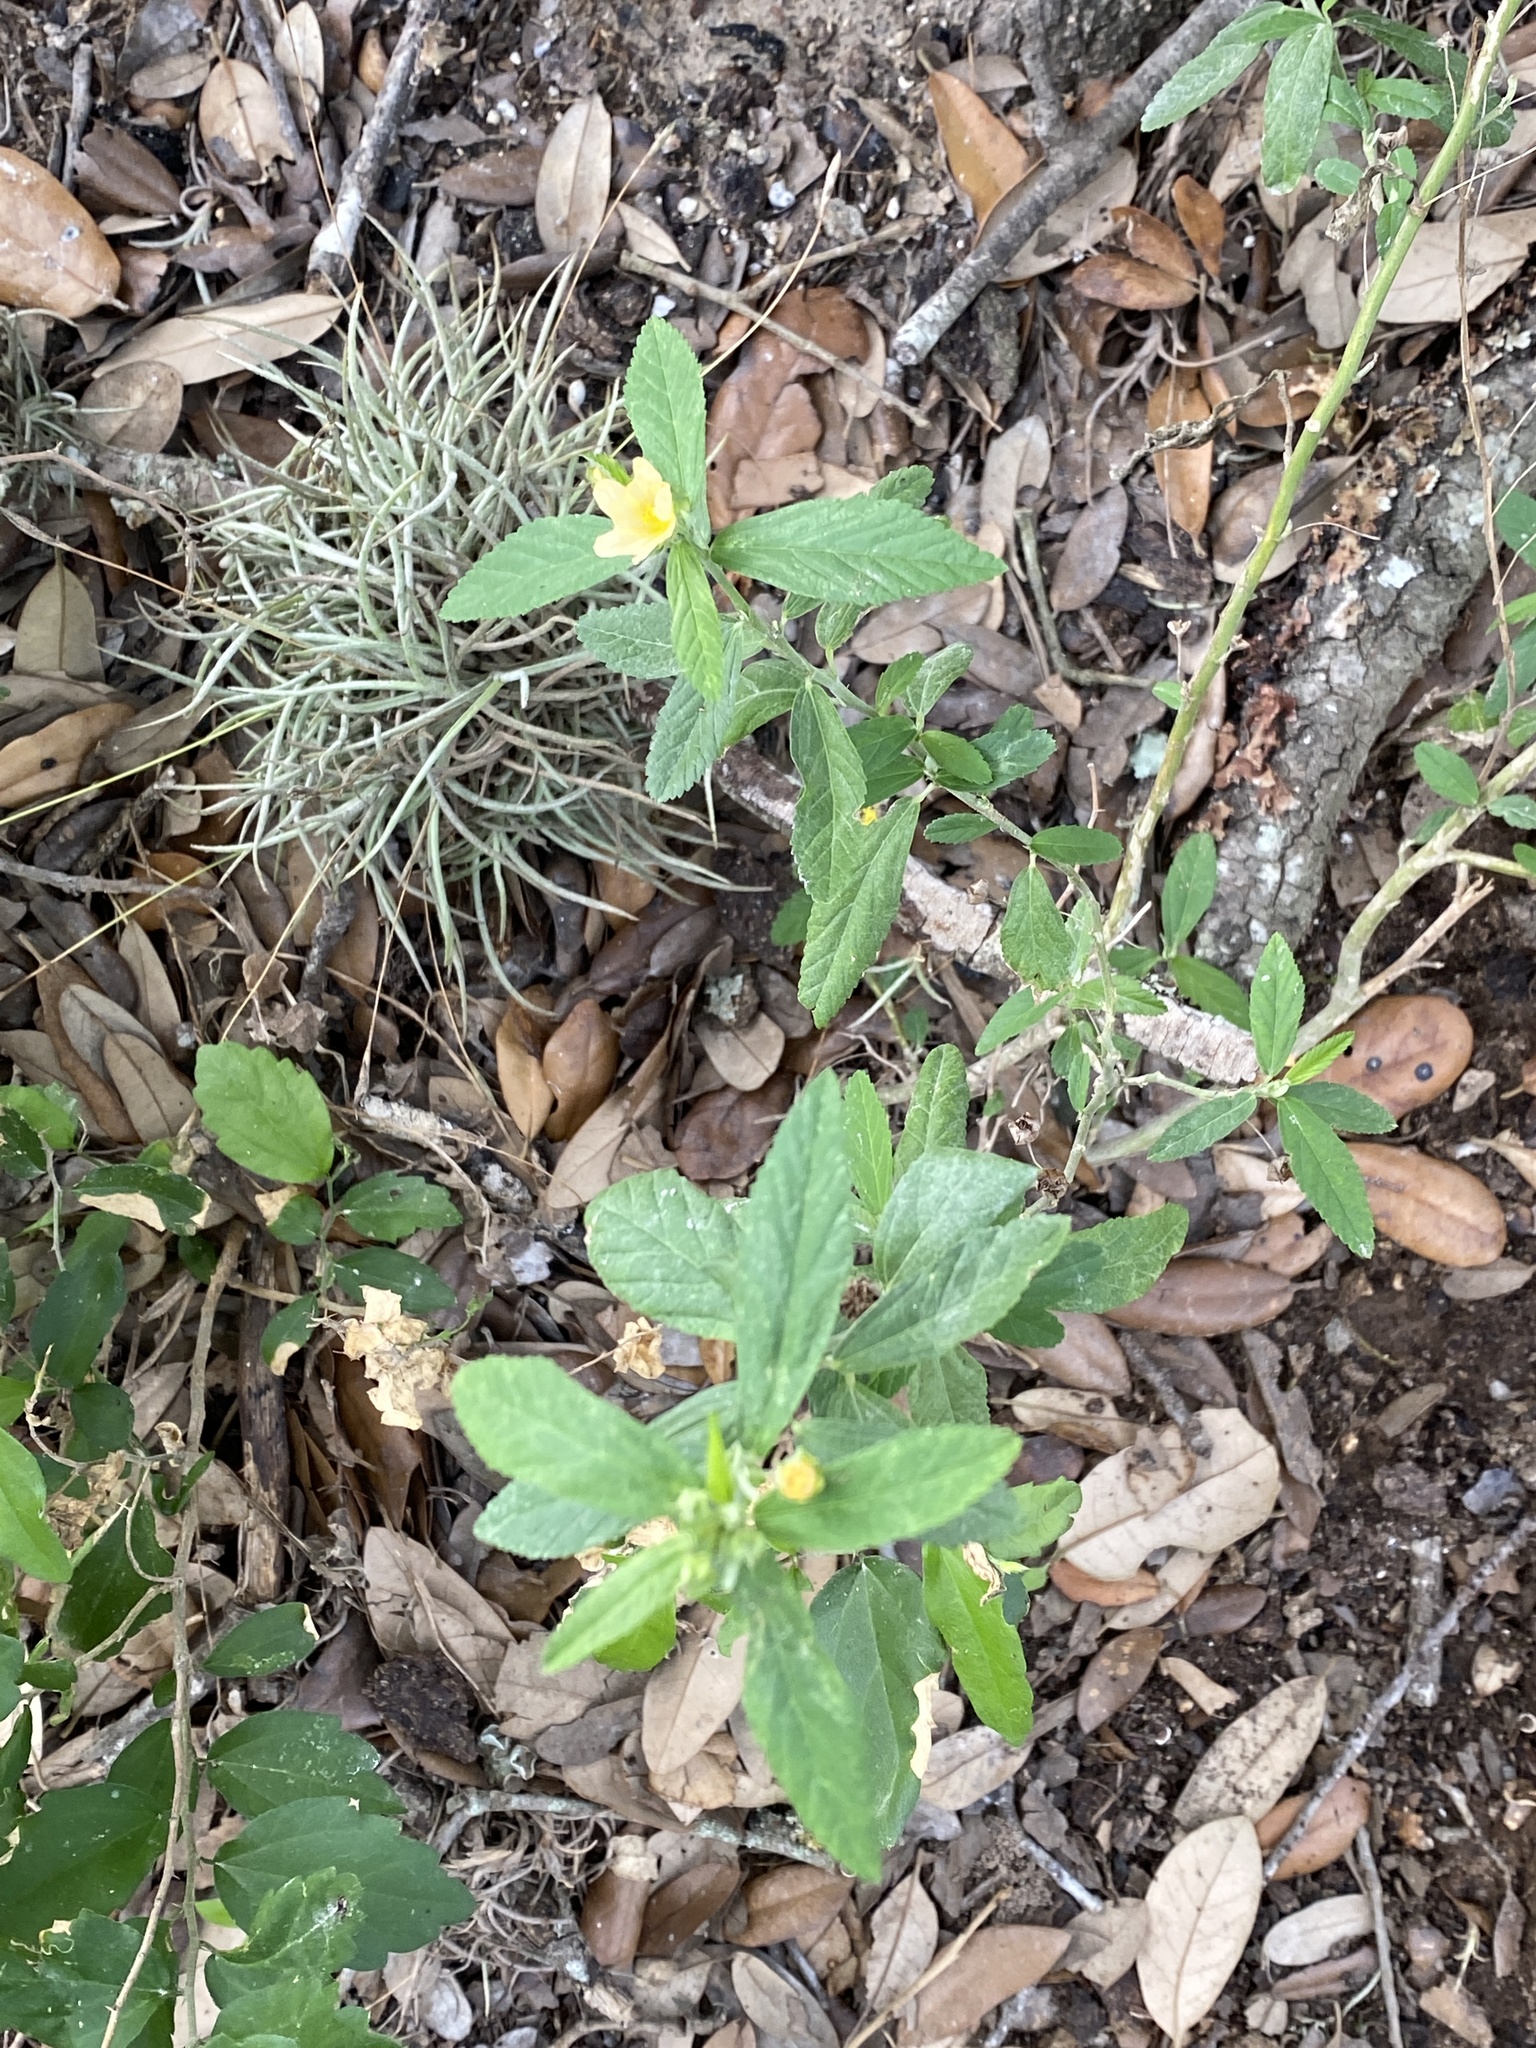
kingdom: Plantae
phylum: Tracheophyta
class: Magnoliopsida
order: Malvales
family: Malvaceae
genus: Sida
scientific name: Sida rhombifolia
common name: Queensland-hemp
